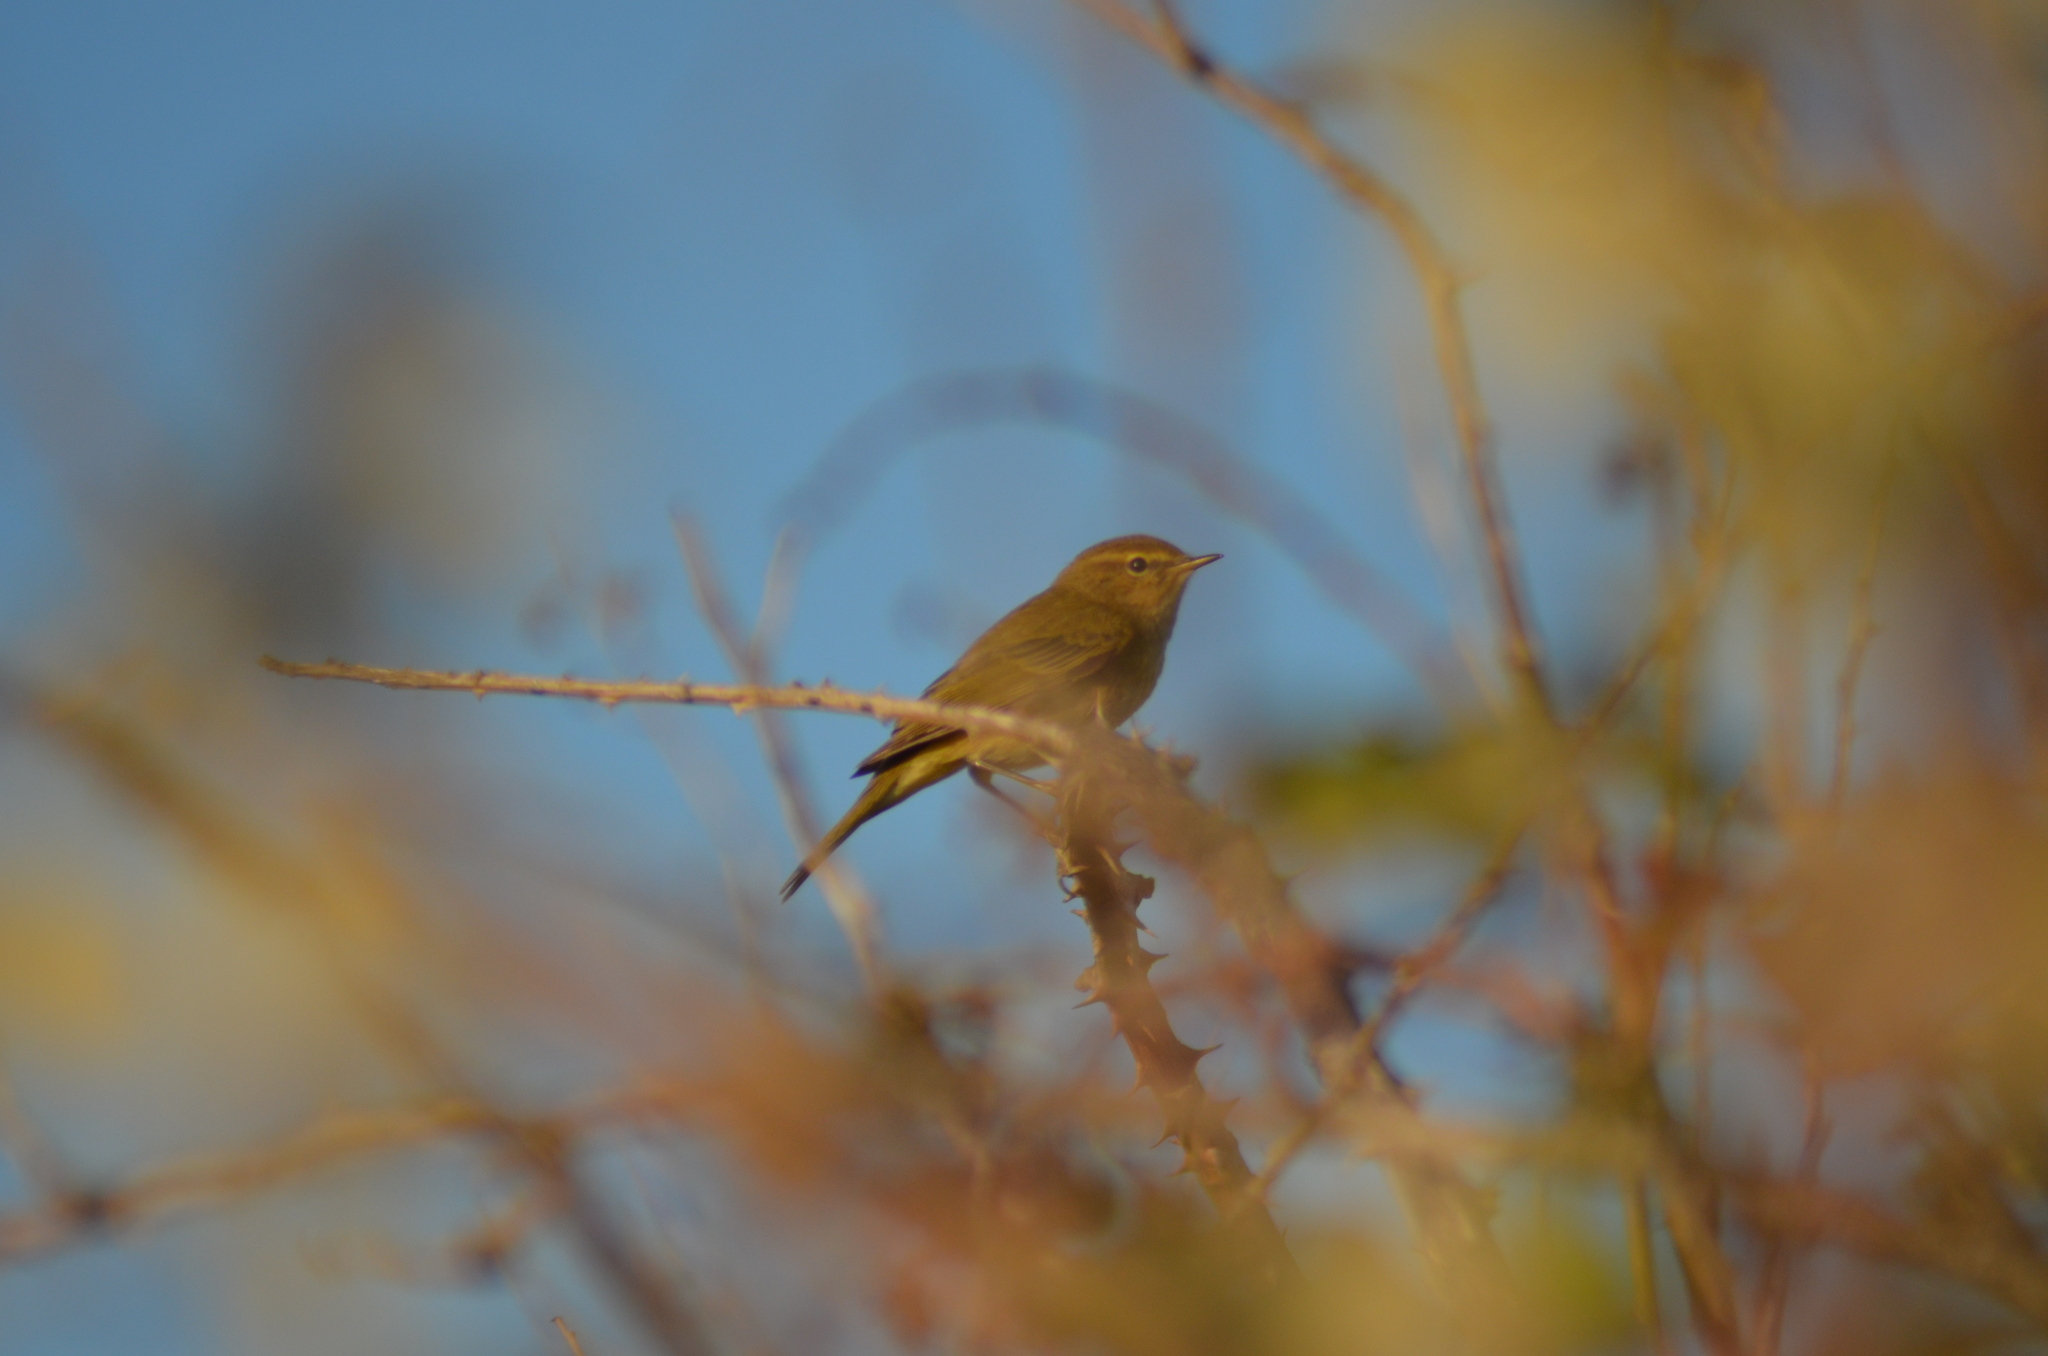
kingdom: Animalia
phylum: Chordata
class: Aves
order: Passeriformes
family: Phylloscopidae
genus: Phylloscopus
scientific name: Phylloscopus collybita
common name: Common chiffchaff
